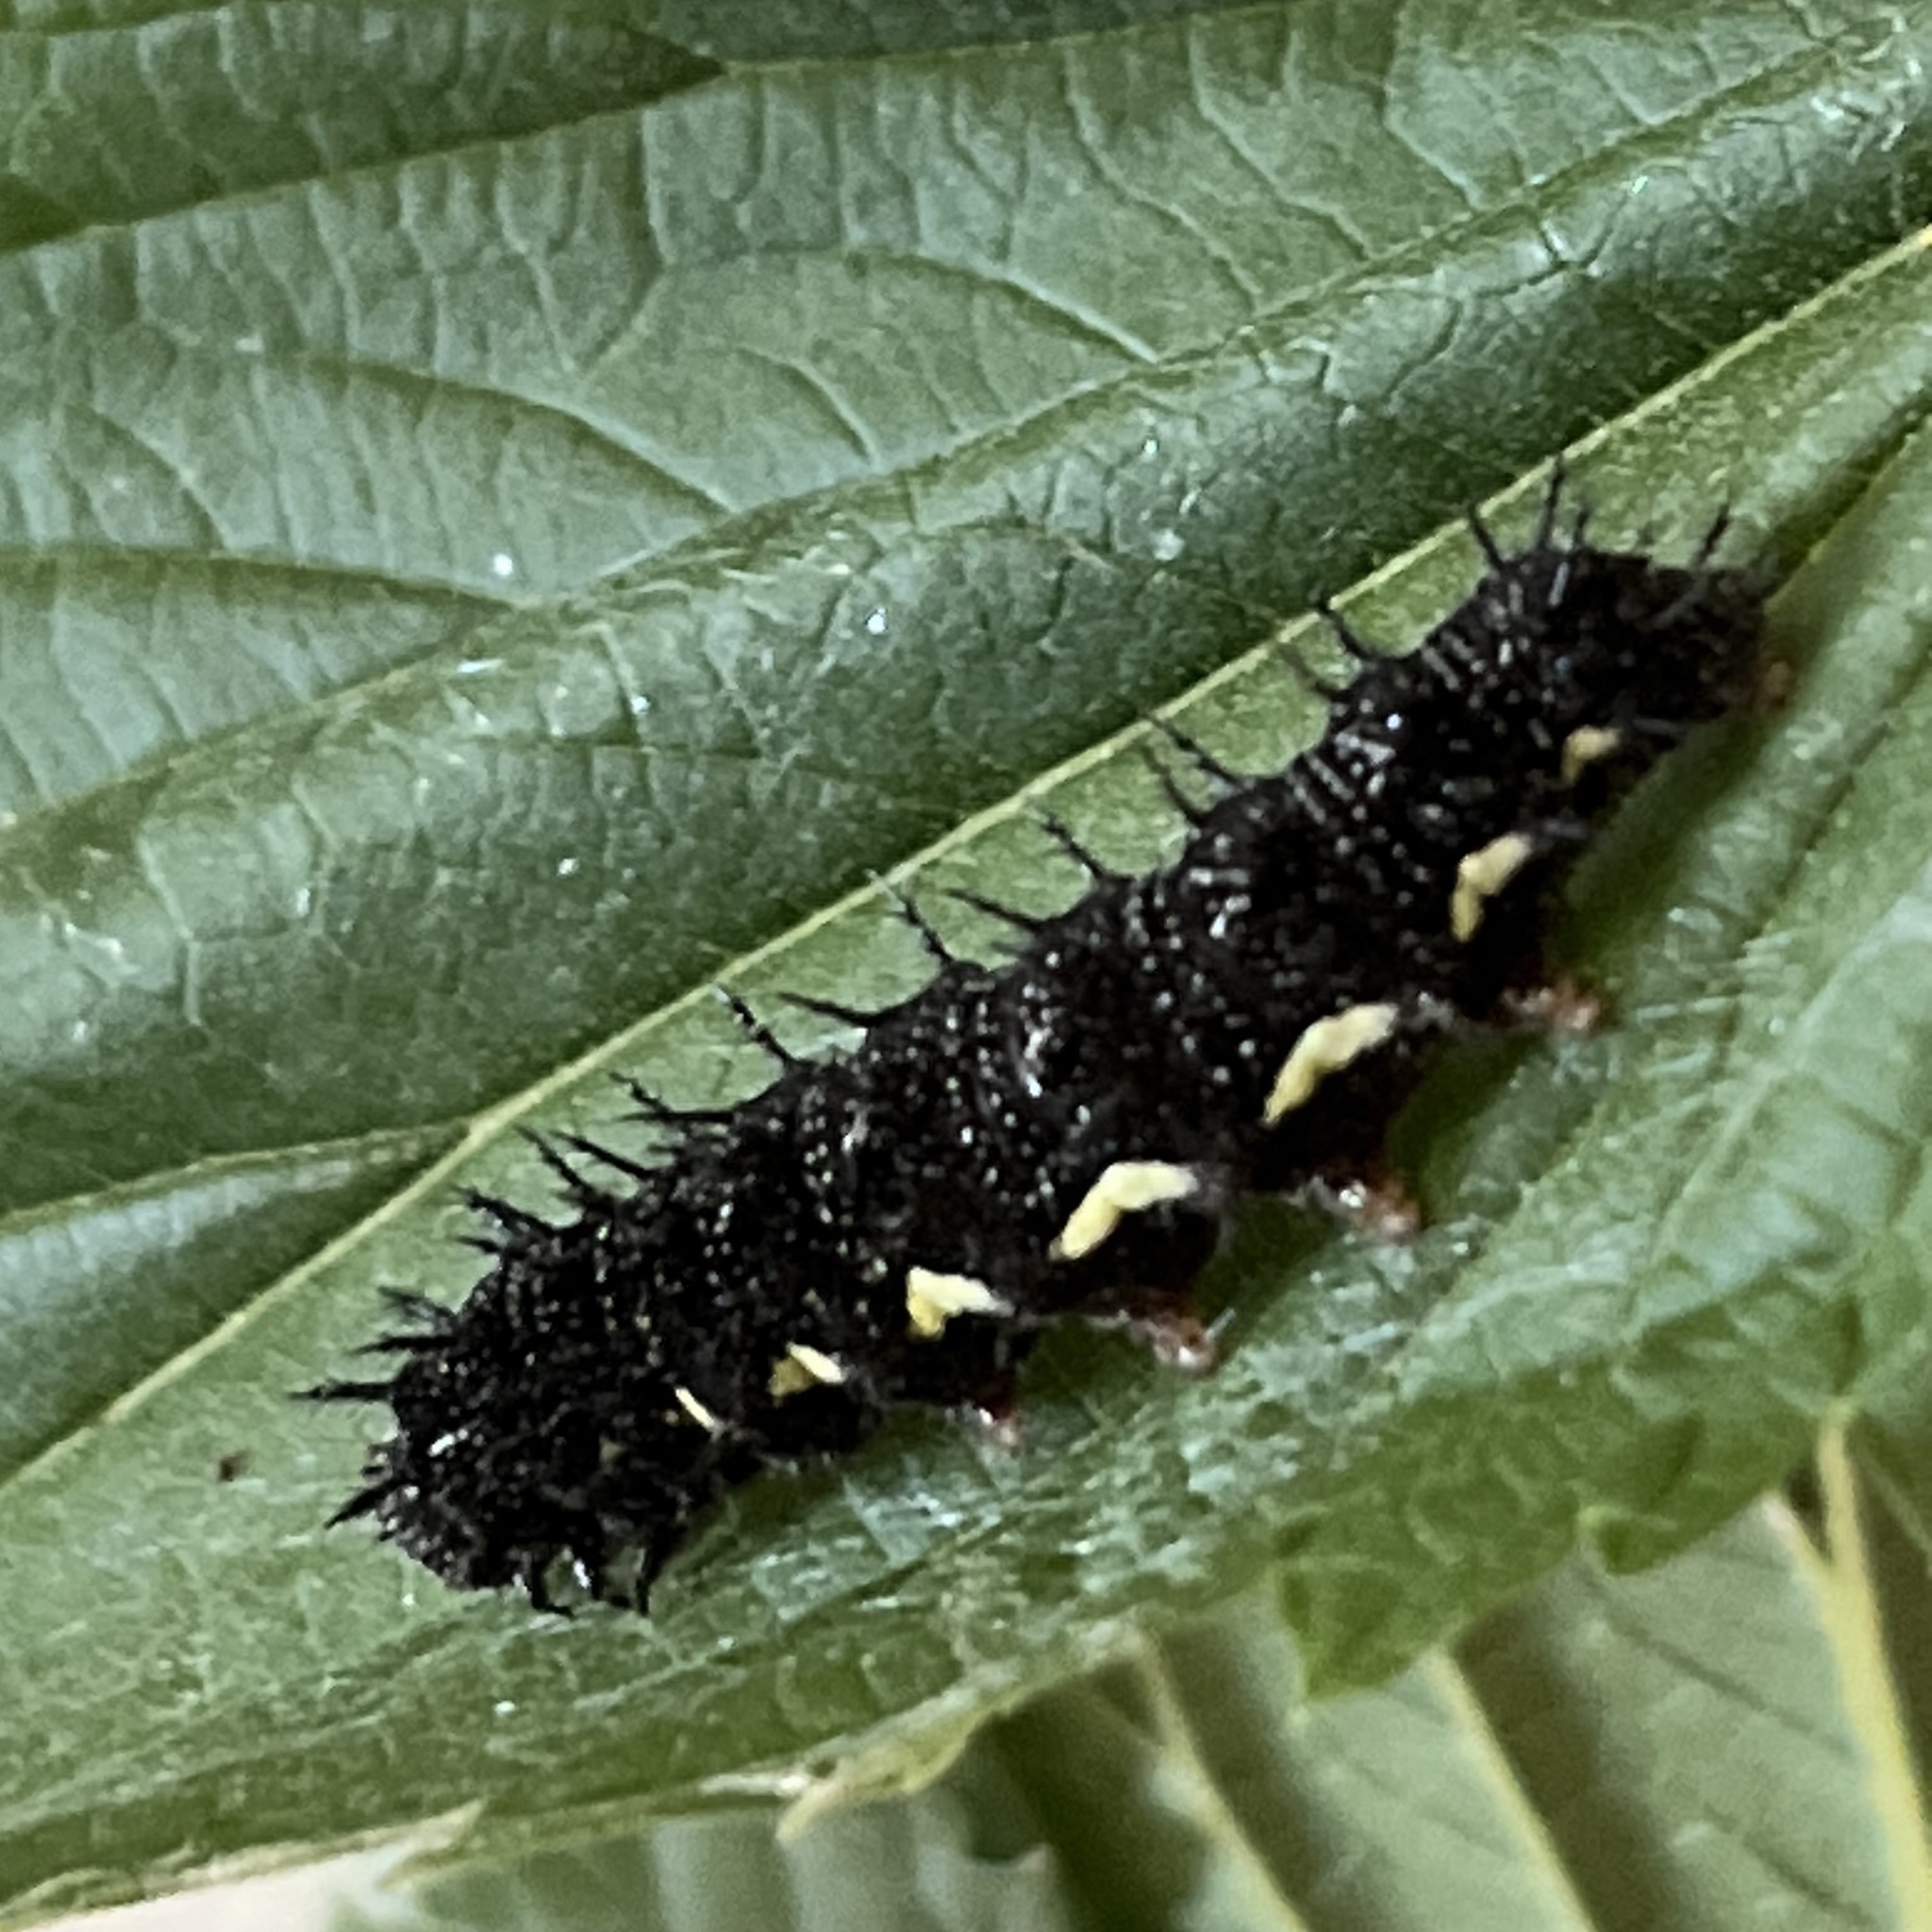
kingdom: Animalia
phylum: Arthropoda
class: Insecta
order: Lepidoptera
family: Nymphalidae
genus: Vanessa
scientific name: Vanessa atalanta
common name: Red admiral
